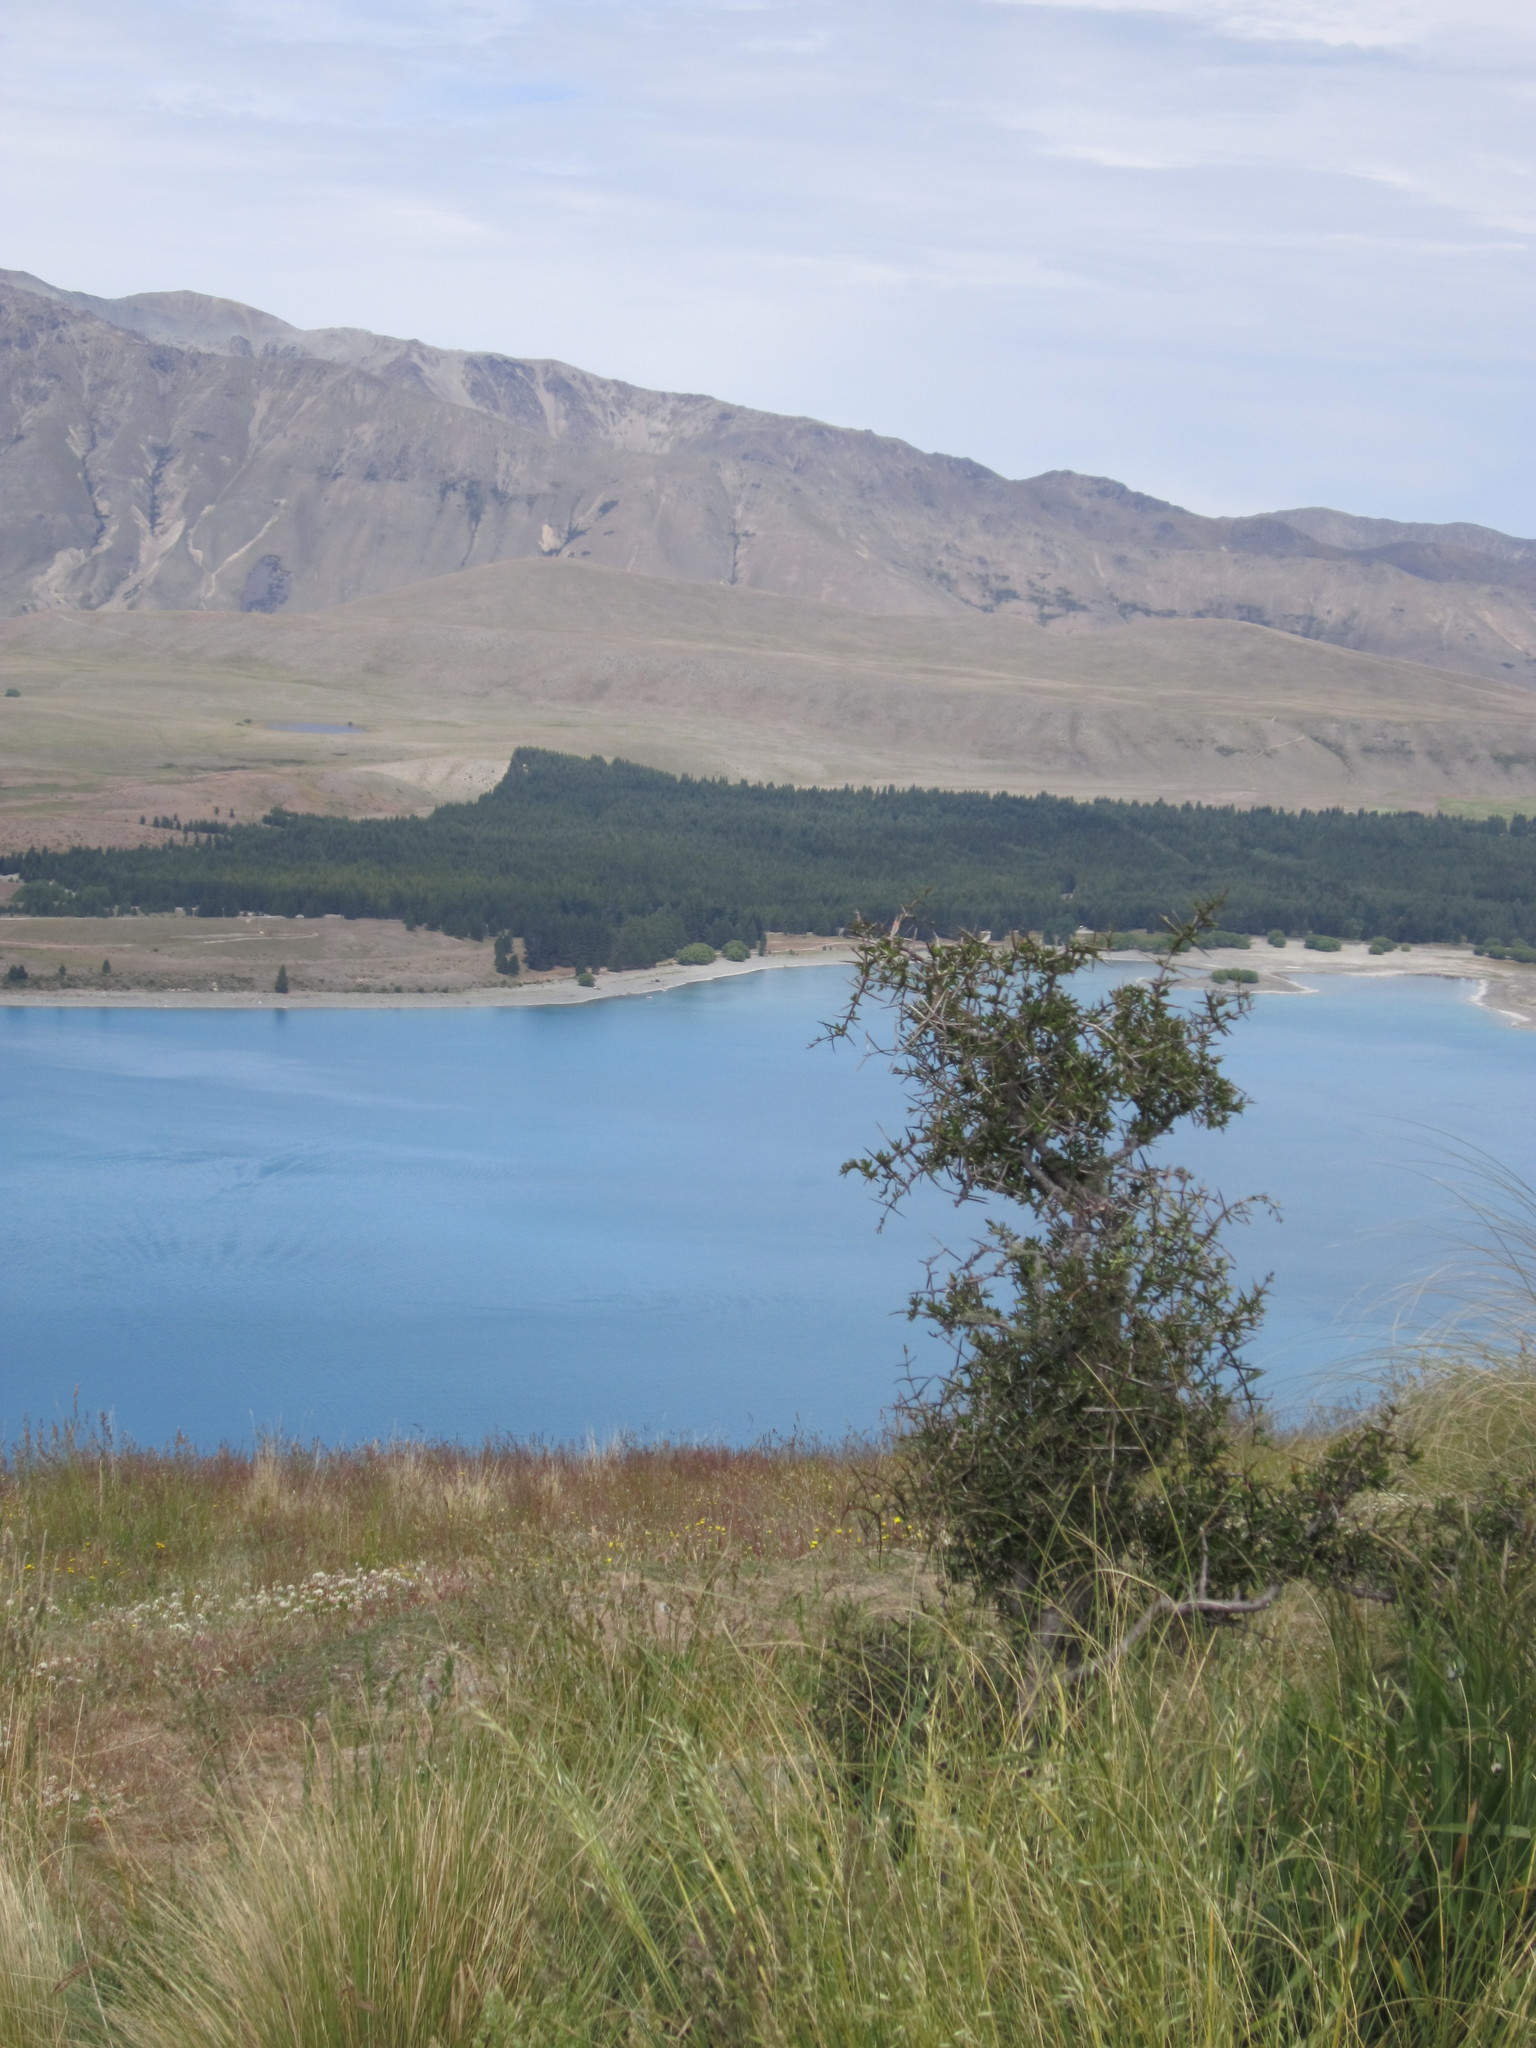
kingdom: Plantae
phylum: Tracheophyta
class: Magnoliopsida
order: Rosales
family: Rhamnaceae
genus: Discaria
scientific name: Discaria toumatou
